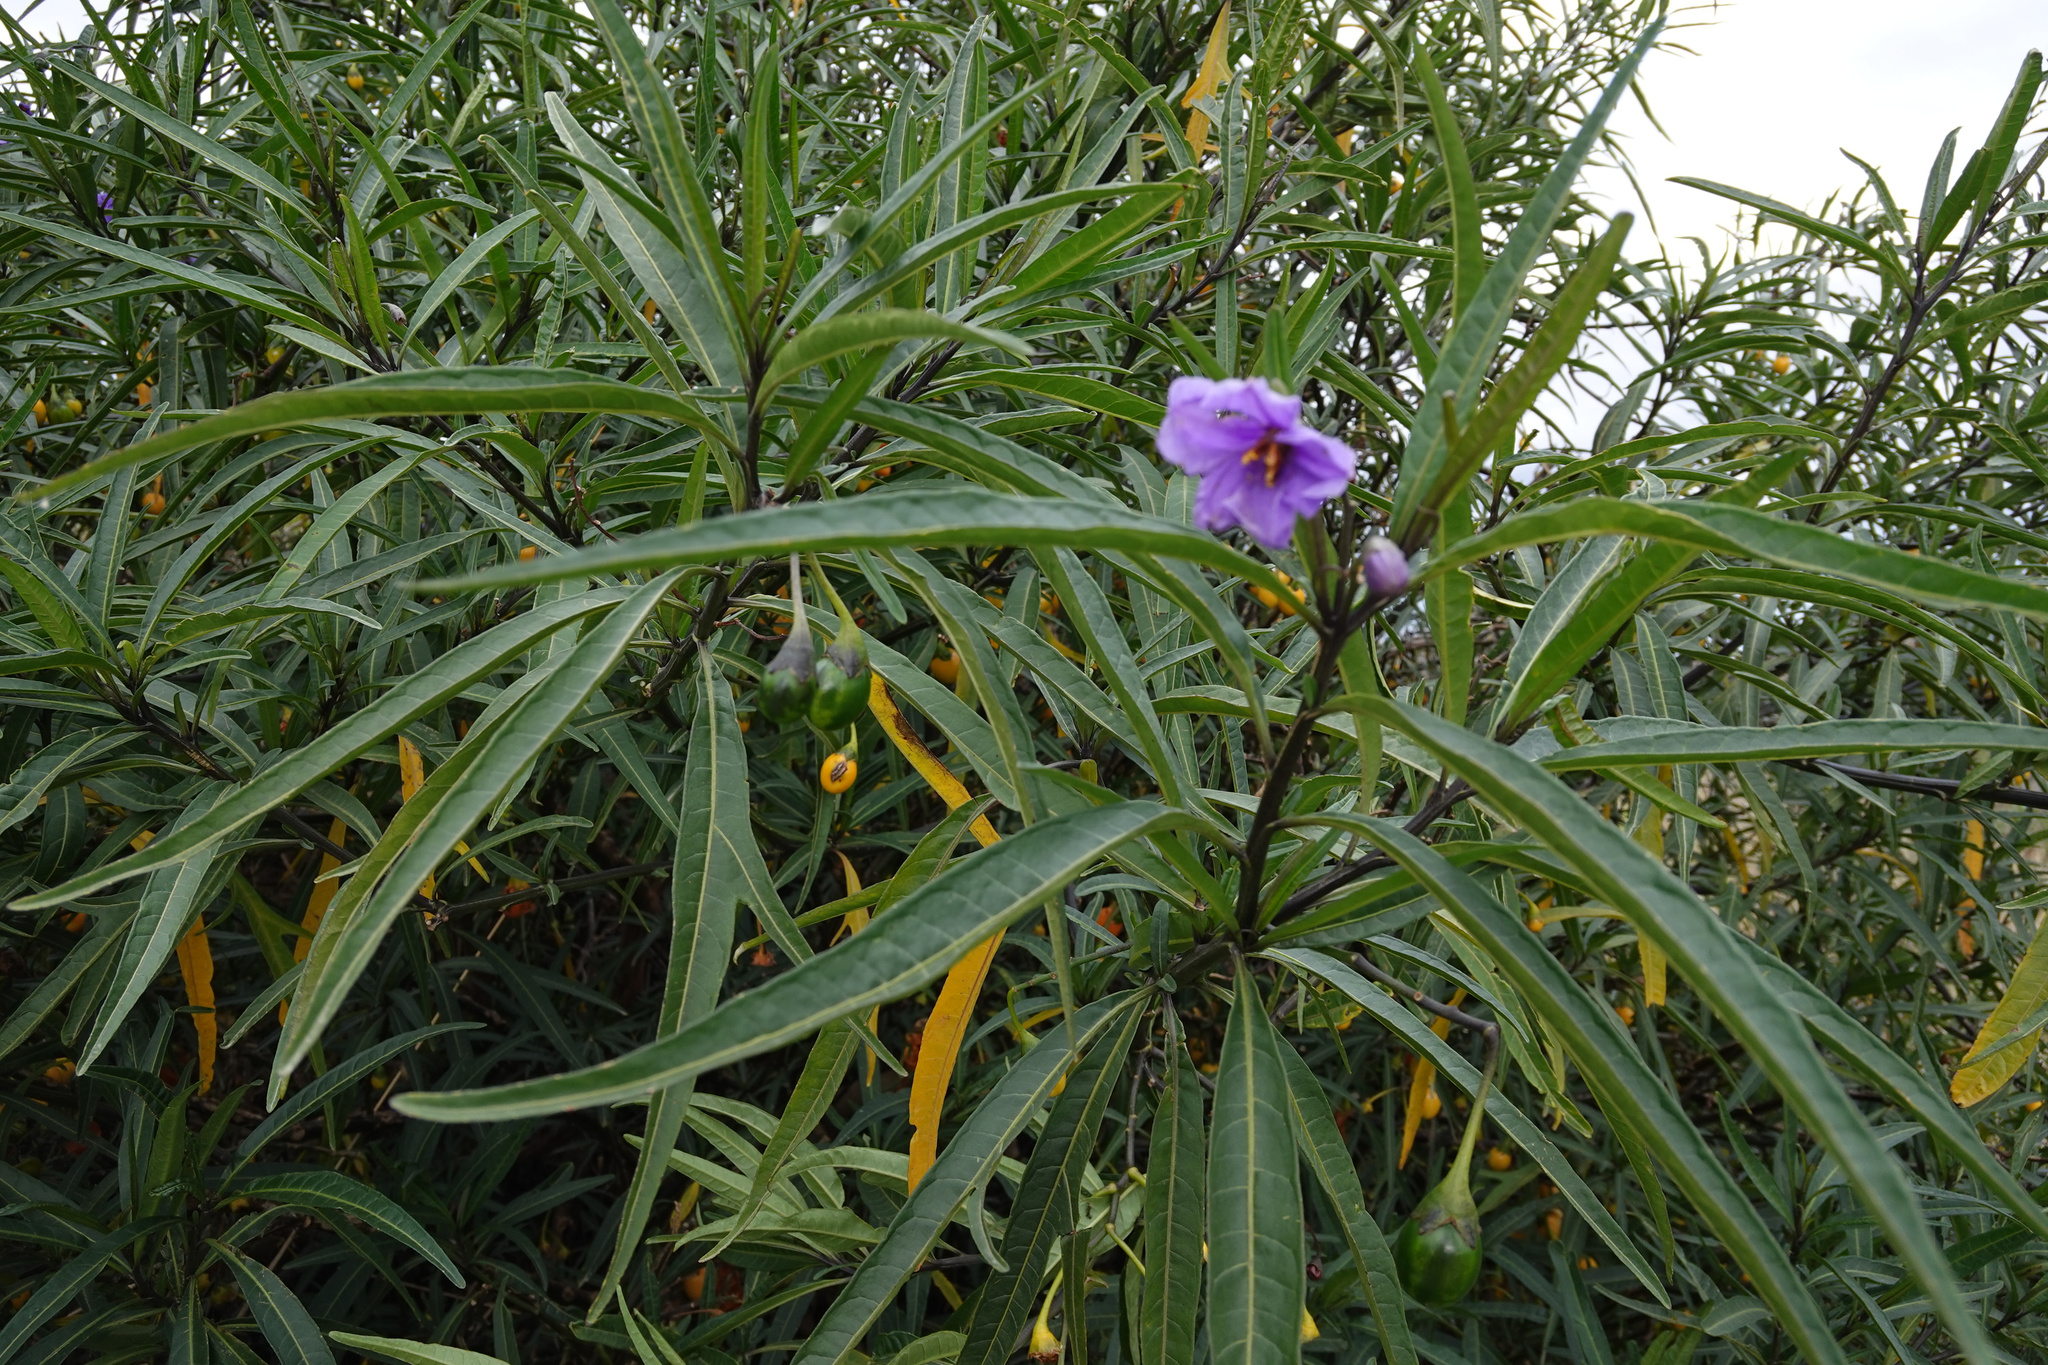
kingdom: Plantae
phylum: Tracheophyta
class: Magnoliopsida
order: Solanales
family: Solanaceae
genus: Solanum
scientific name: Solanum laciniatum
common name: Kangaroo-apple
